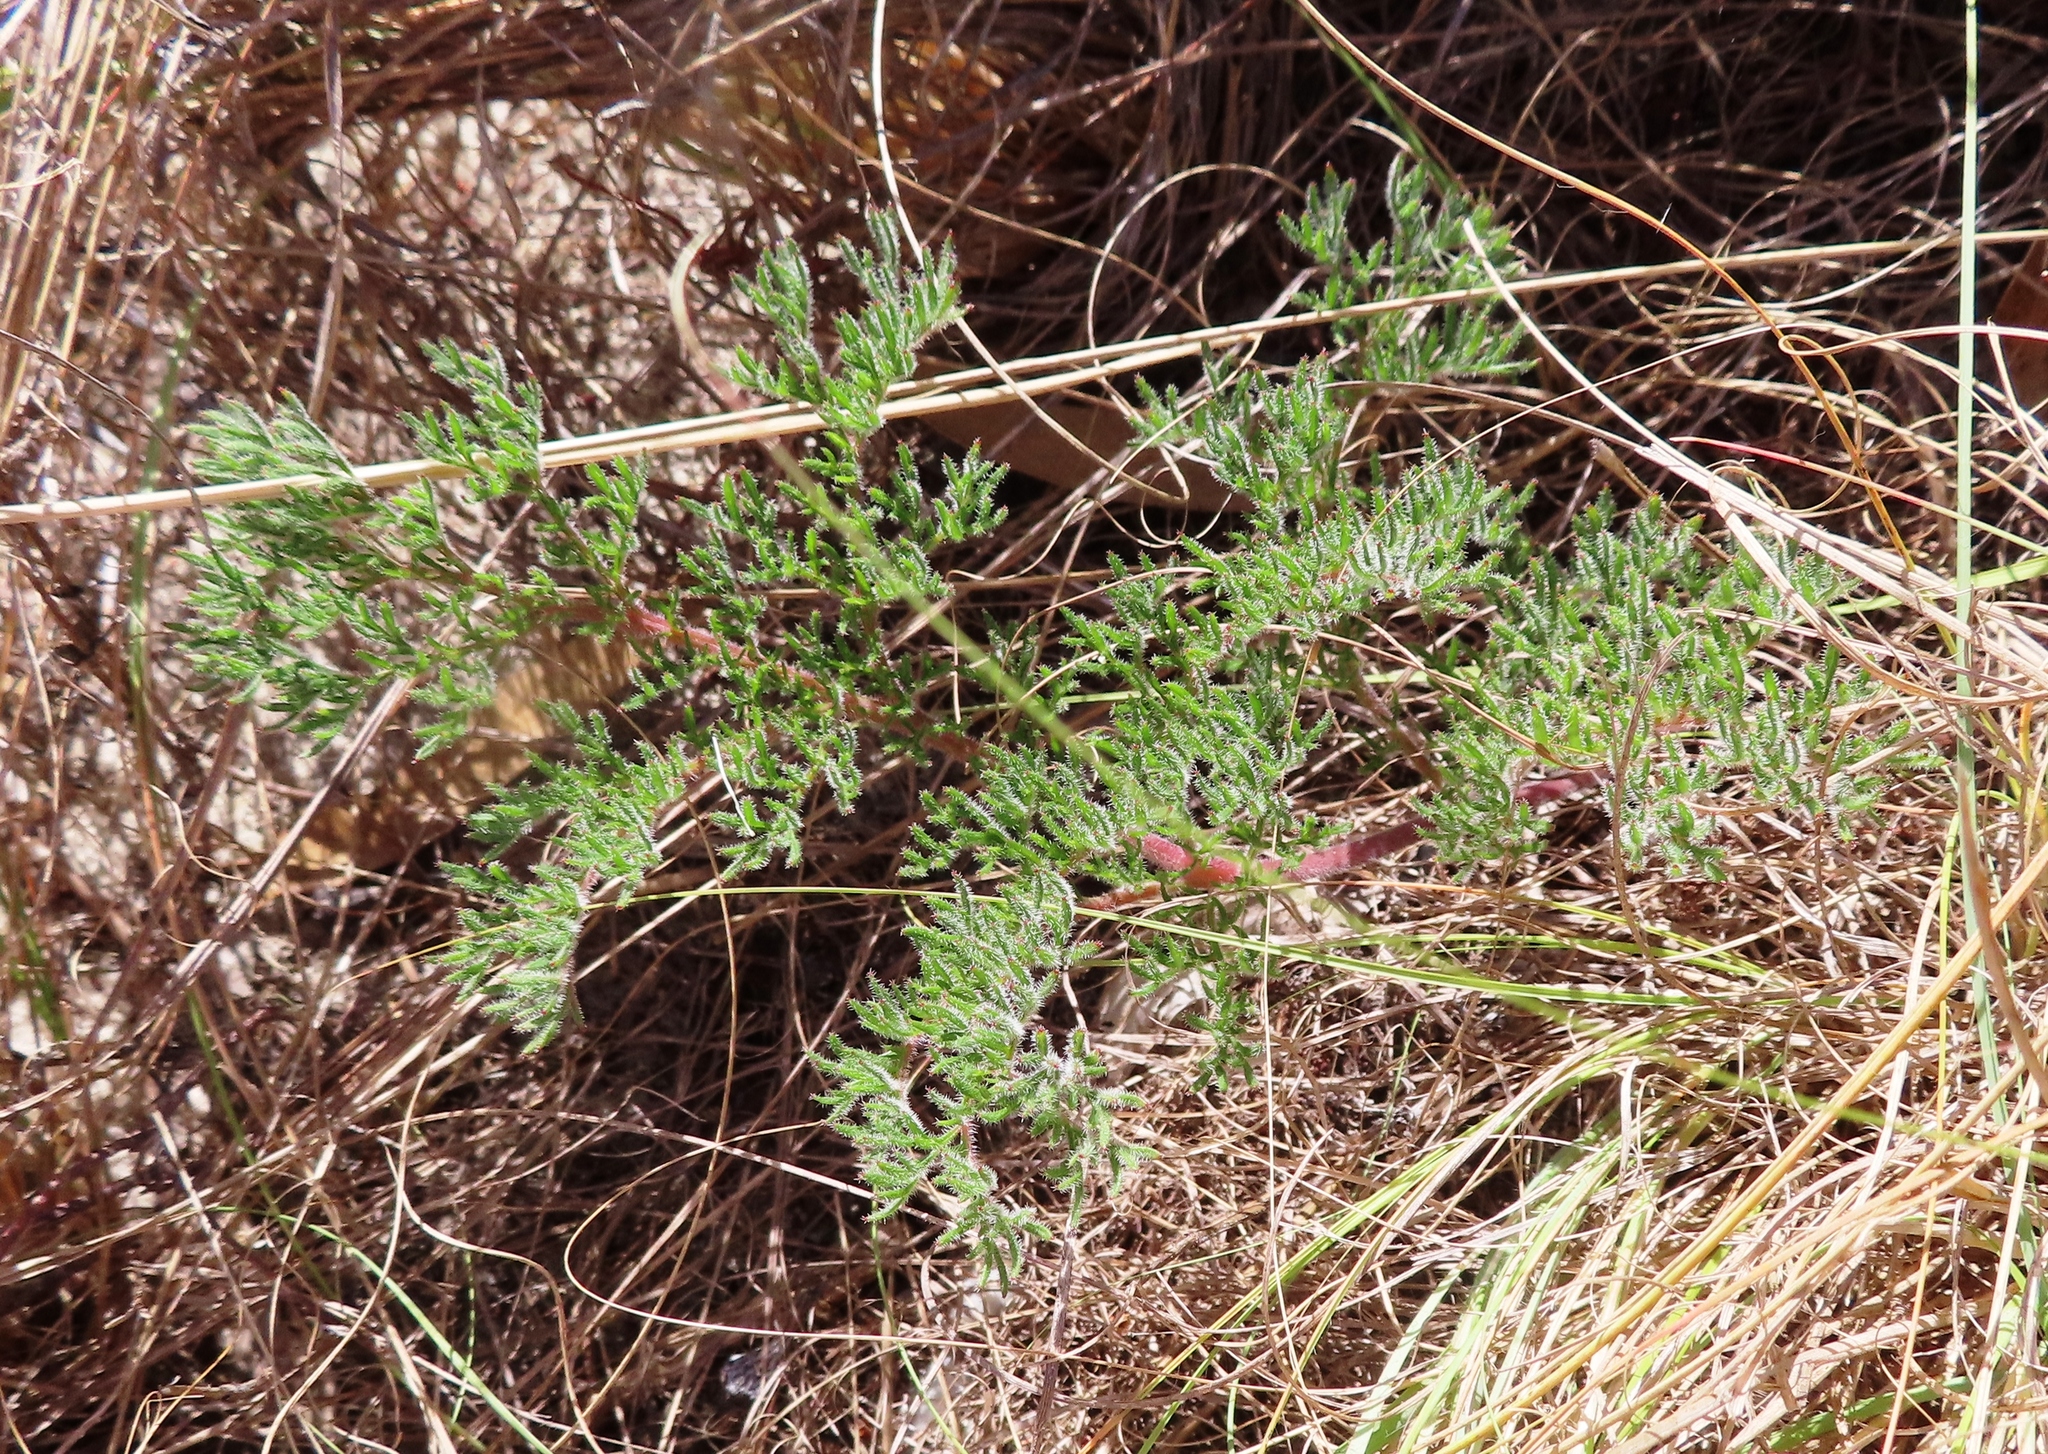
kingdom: Plantae
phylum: Tracheophyta
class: Magnoliopsida
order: Geraniales
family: Geraniaceae
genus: Pelargonium
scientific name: Pelargonium triste
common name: Night-scent pelargonium
